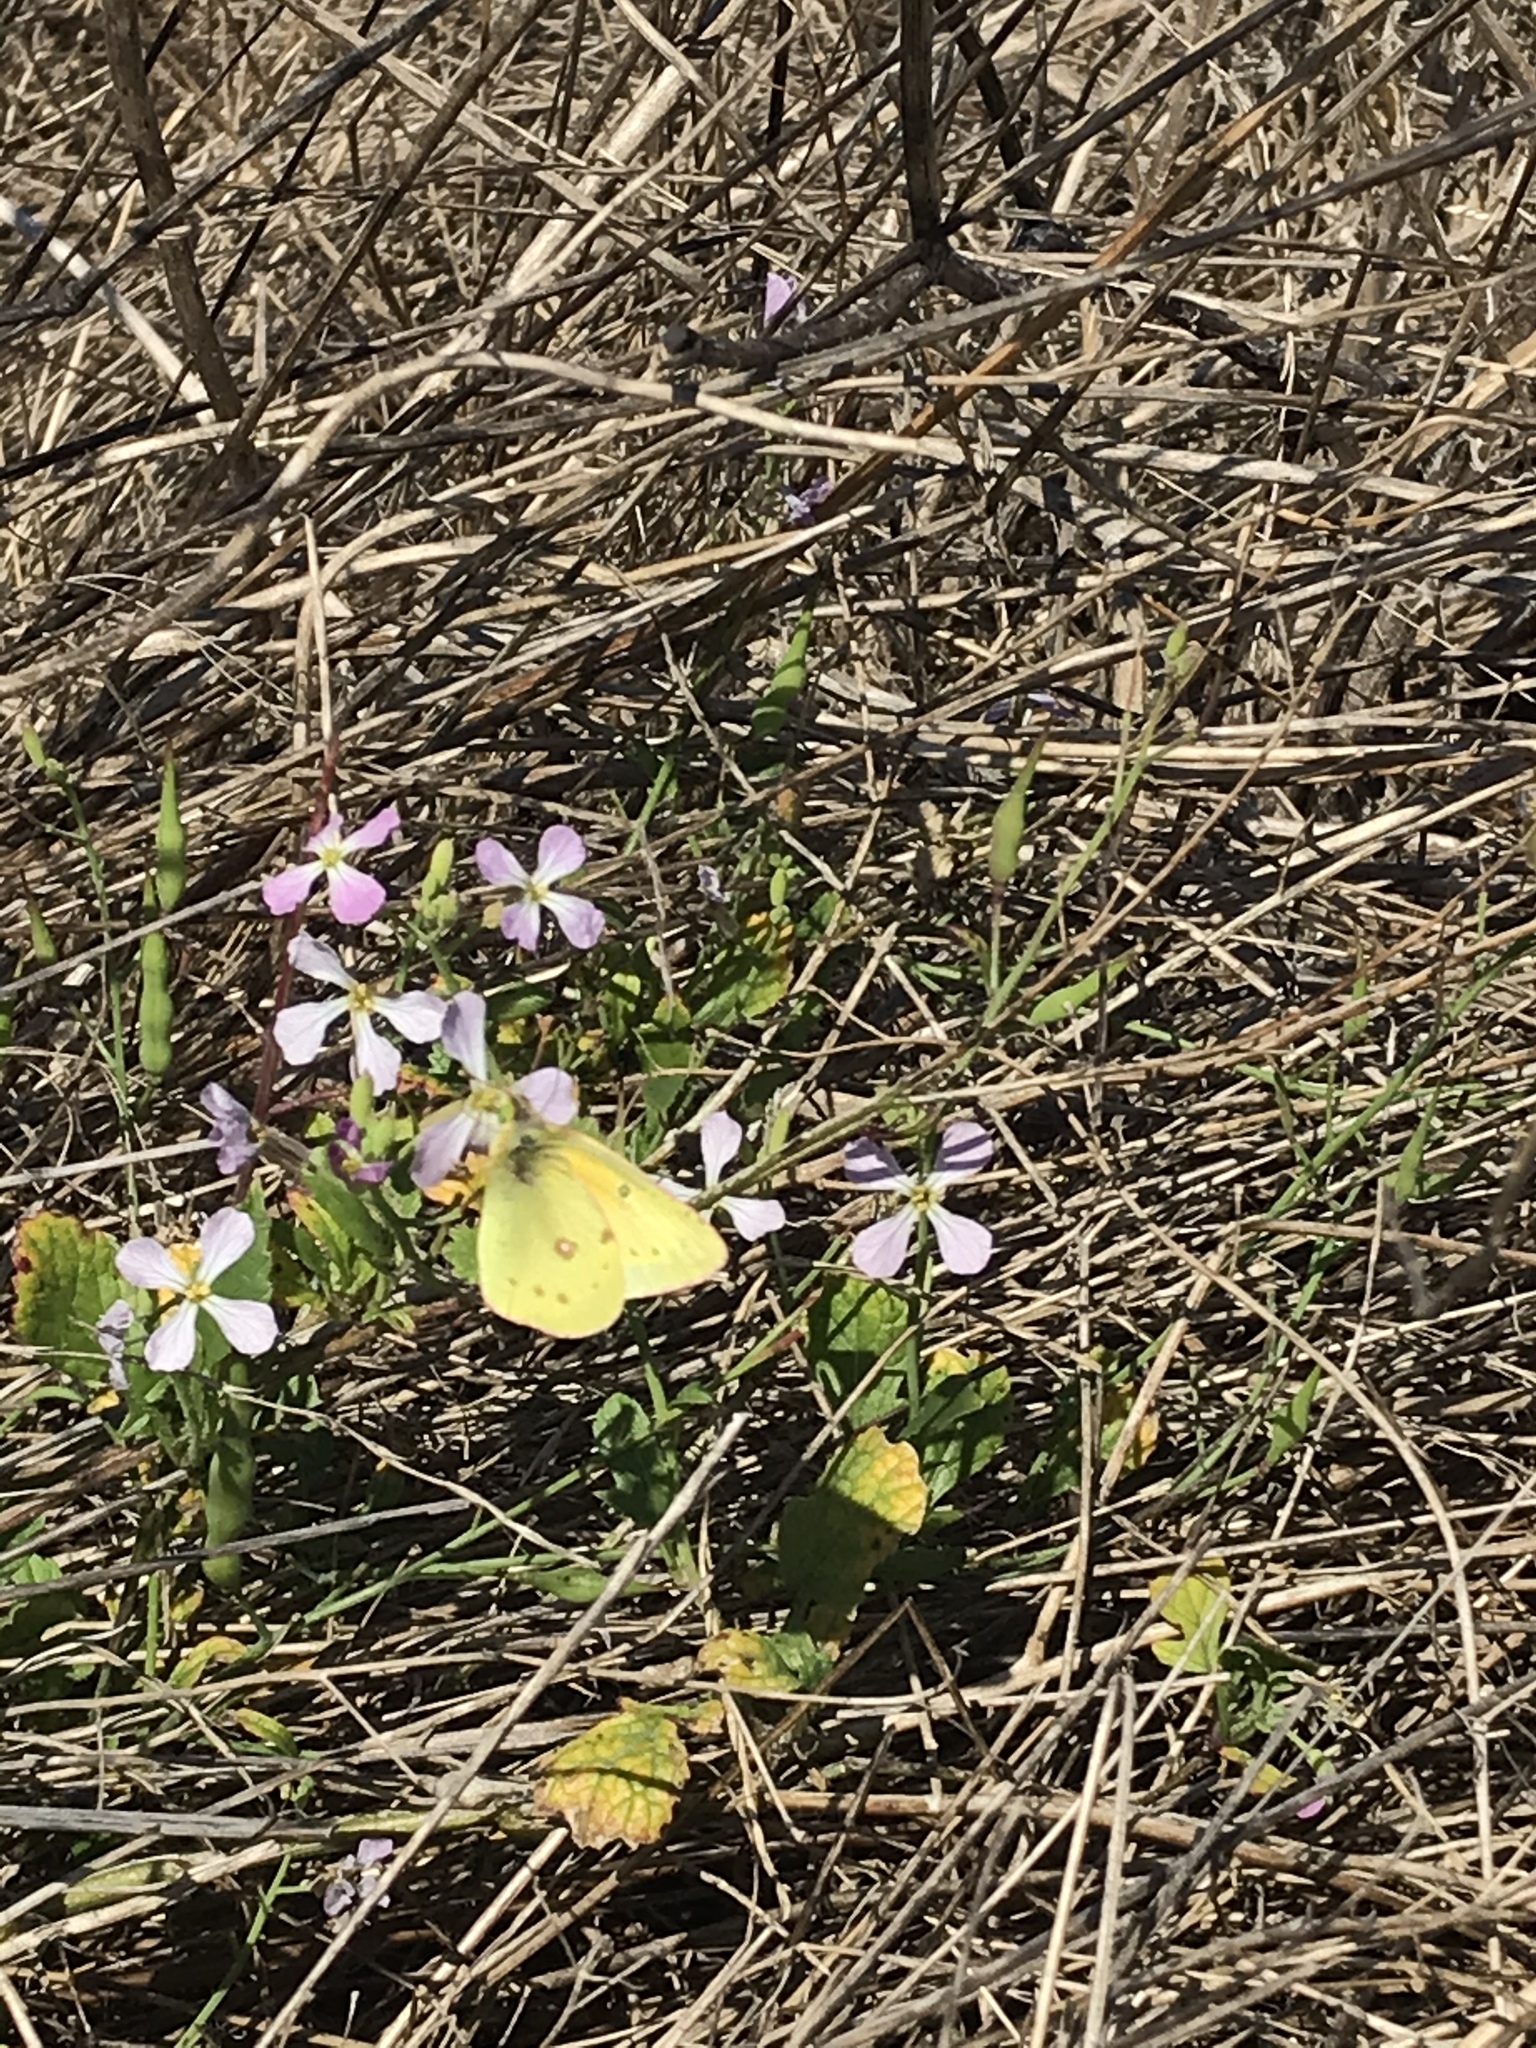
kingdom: Animalia
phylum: Arthropoda
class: Insecta
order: Lepidoptera
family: Pieridae
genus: Colias
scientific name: Colias eurytheme
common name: Alfalfa butterfly
